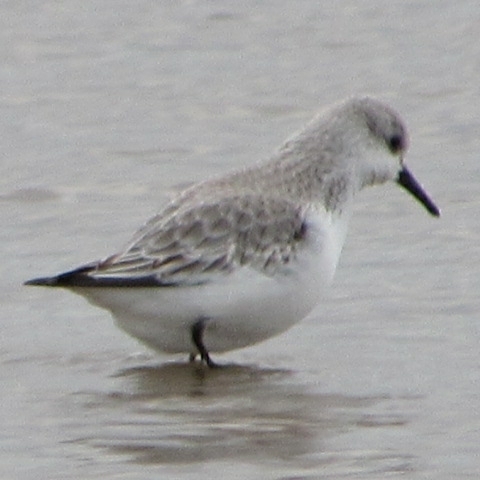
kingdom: Animalia
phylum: Chordata
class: Aves
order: Charadriiformes
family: Scolopacidae
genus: Calidris
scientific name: Calidris alba
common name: Sanderling
